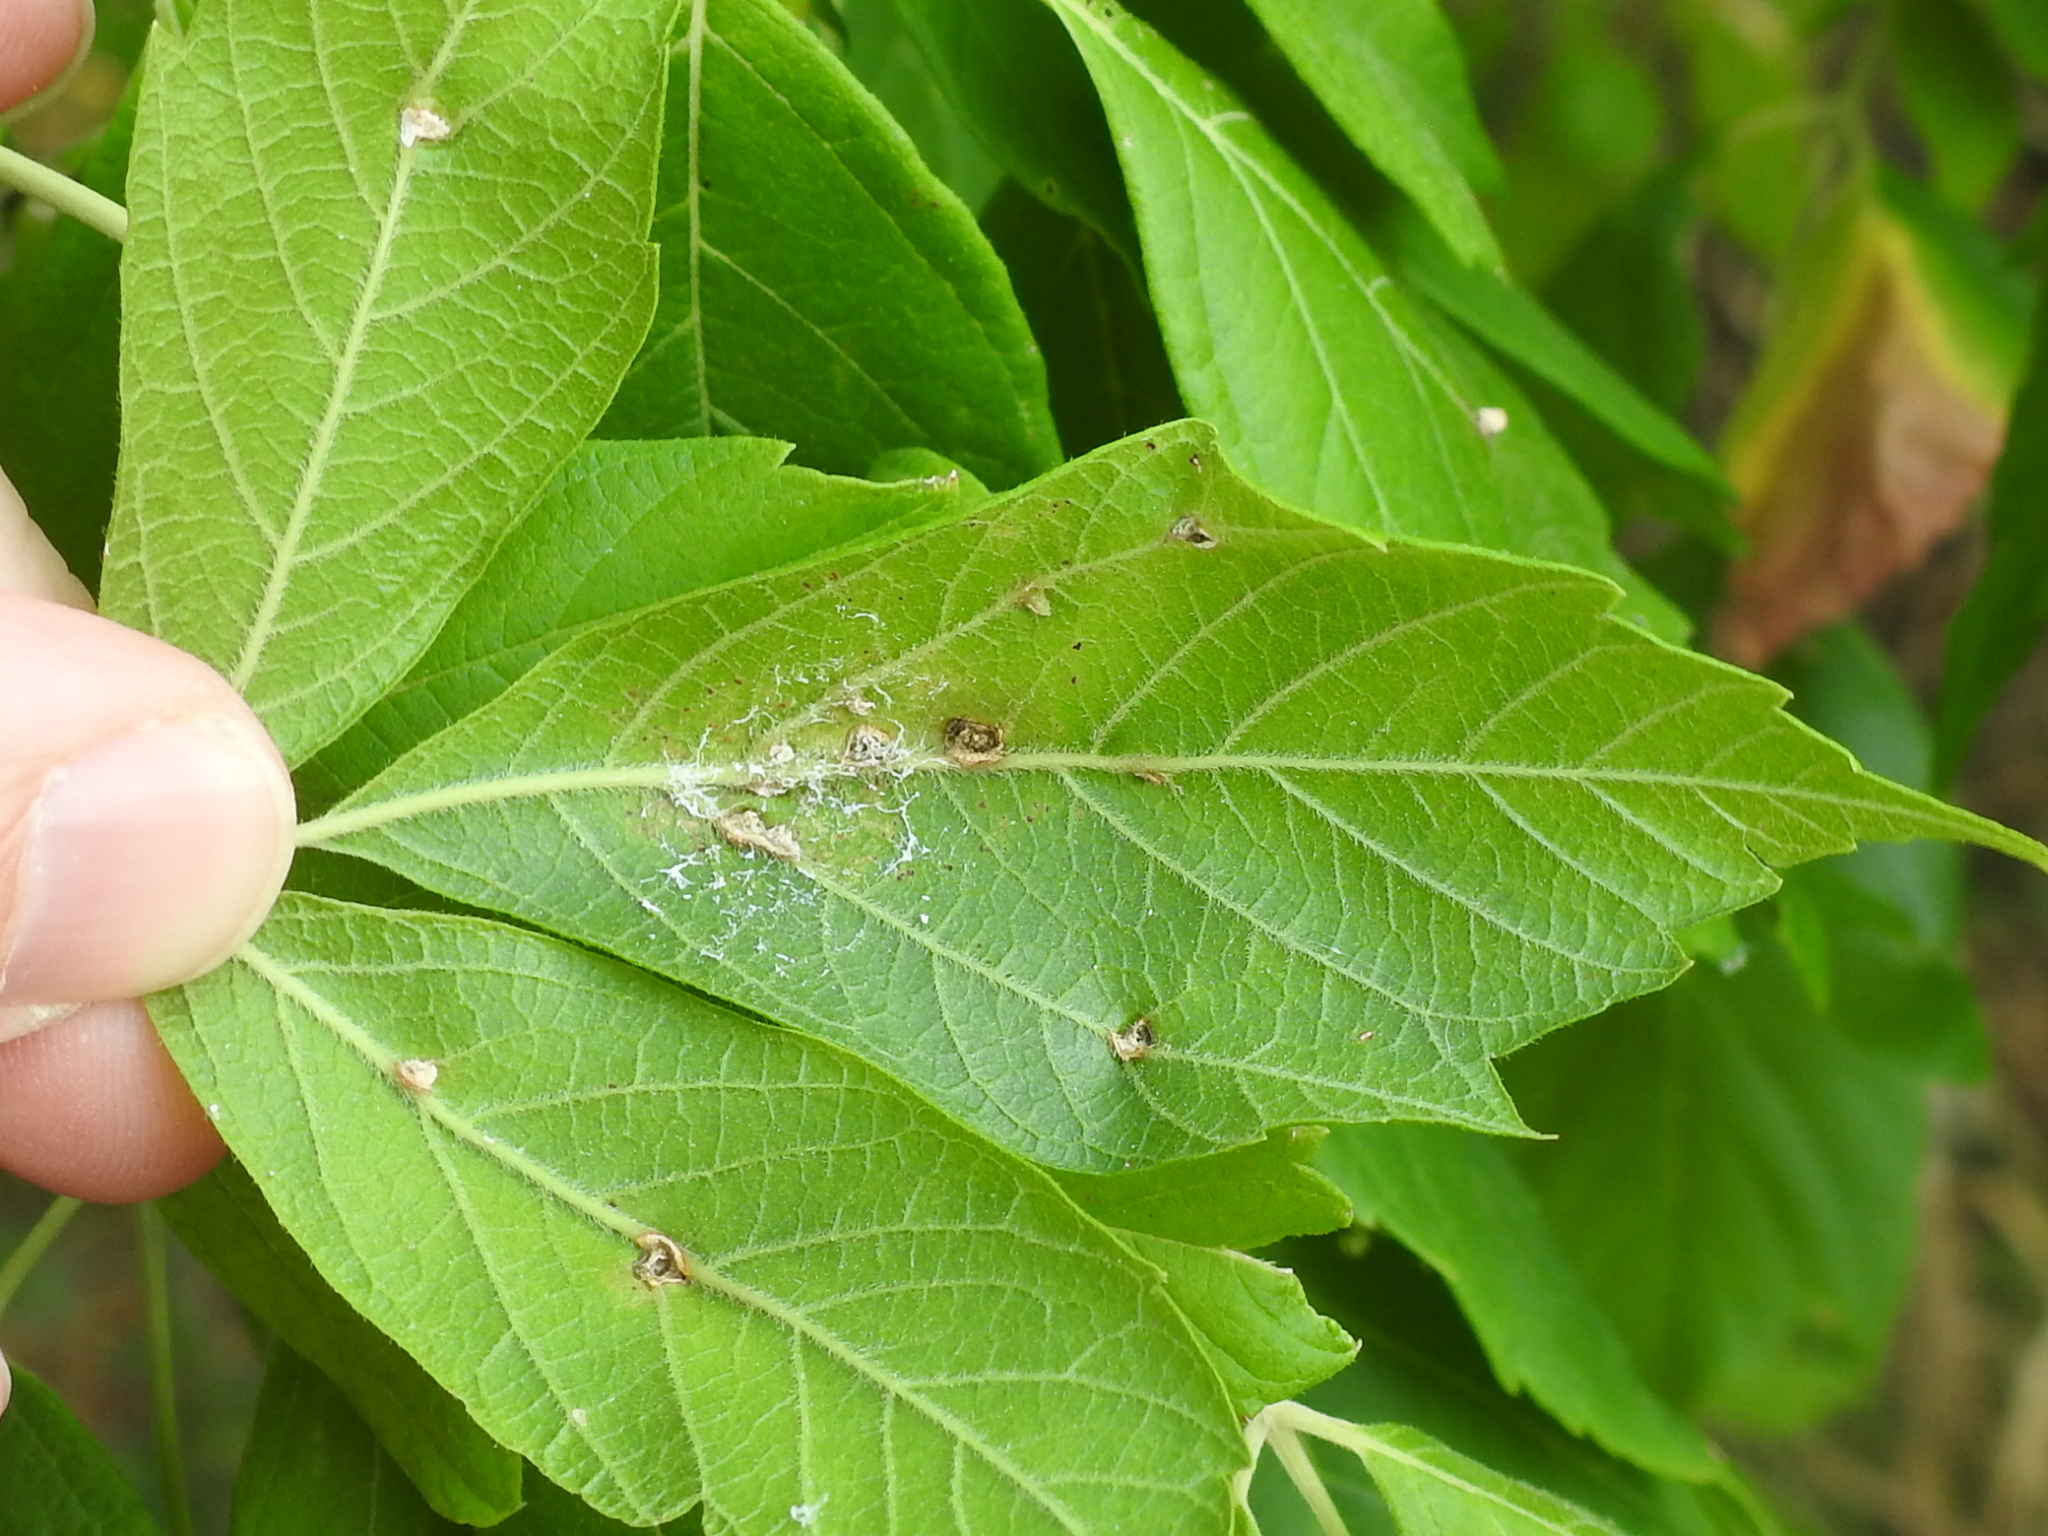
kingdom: Animalia
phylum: Arthropoda
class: Arachnida
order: Trombidiformes
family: Eriophyidae
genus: Aceria
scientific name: Aceria
